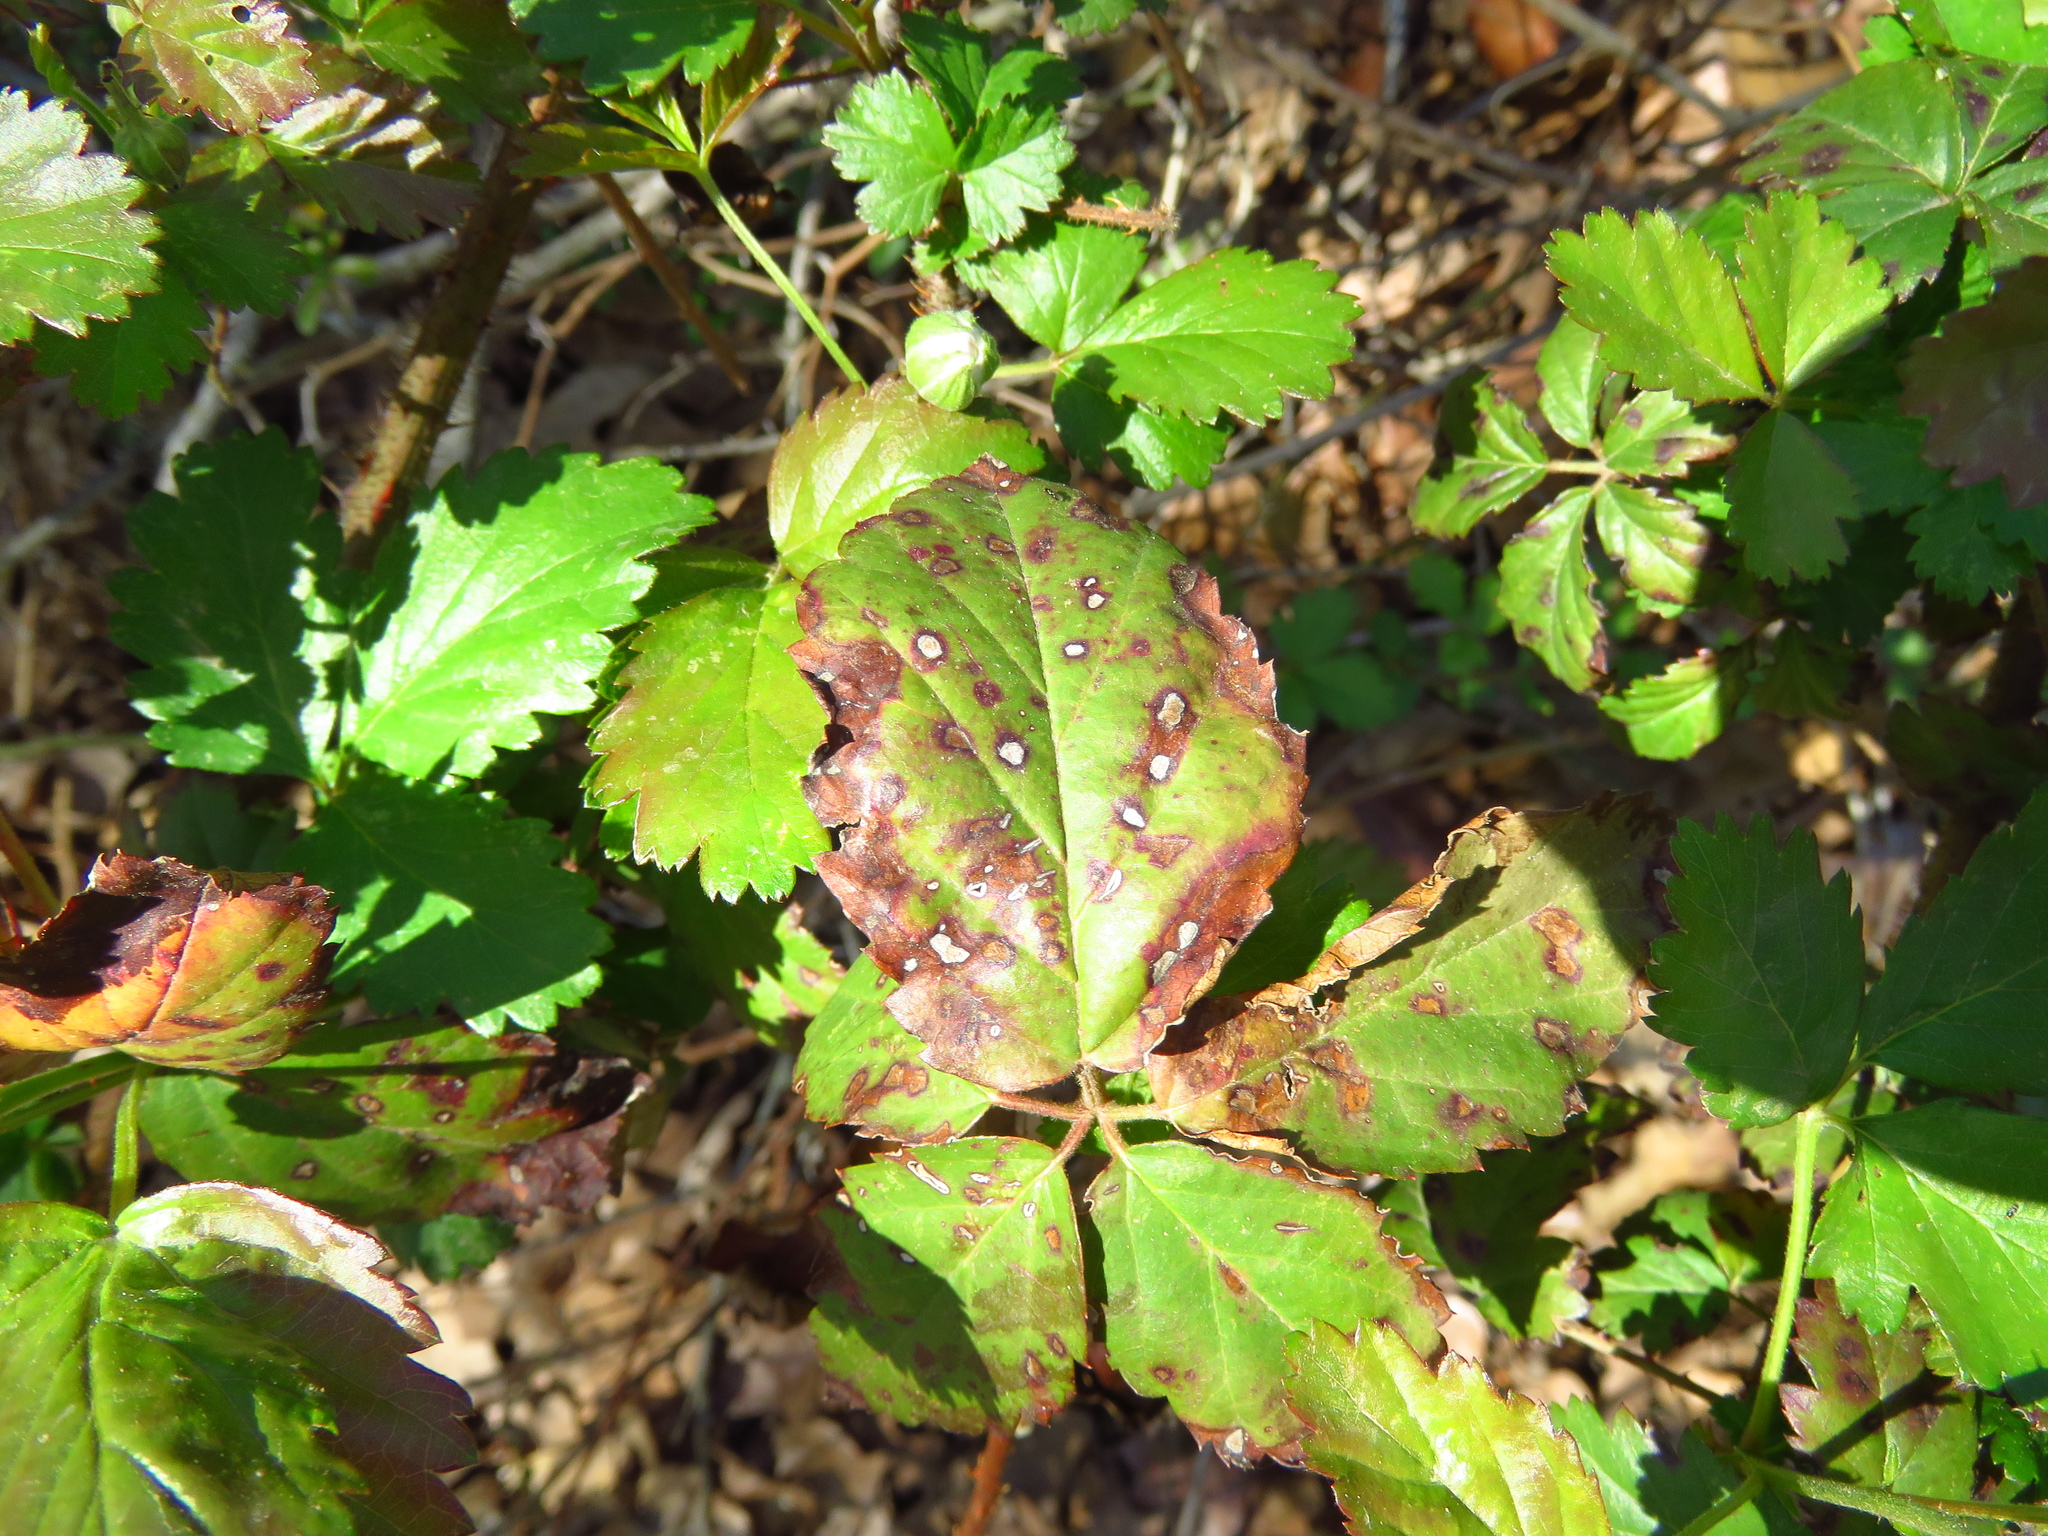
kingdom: Fungi
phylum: Ascomycota
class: Dothideomycetes
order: Mycosphaerellales
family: Mycosphaerellaceae
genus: Sphaerulina
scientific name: Sphaerulina westendorpii
